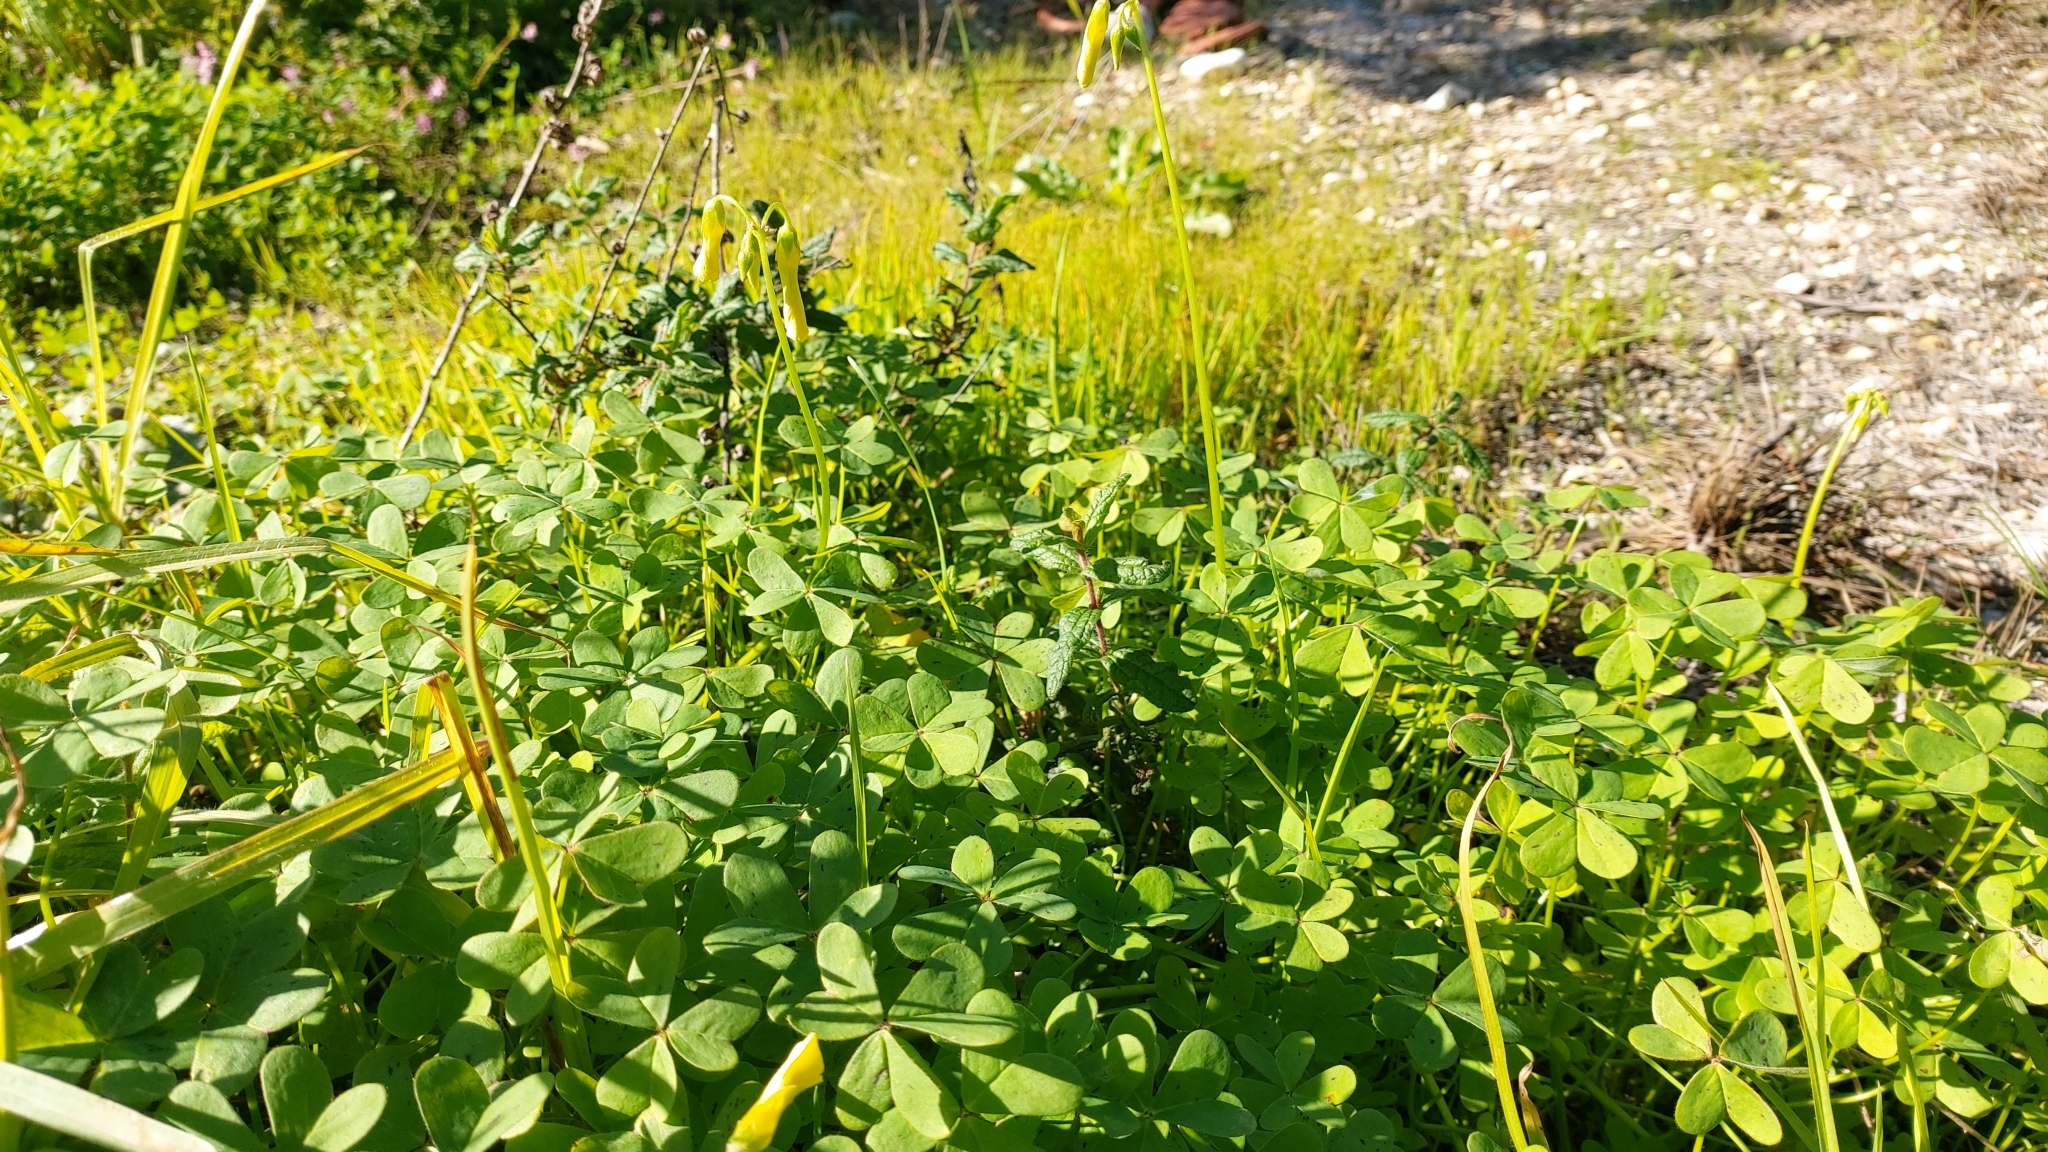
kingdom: Plantae
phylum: Tracheophyta
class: Magnoliopsida
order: Oxalidales
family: Oxalidaceae
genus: Oxalis
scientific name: Oxalis pes-caprae
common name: Bermuda-buttercup
